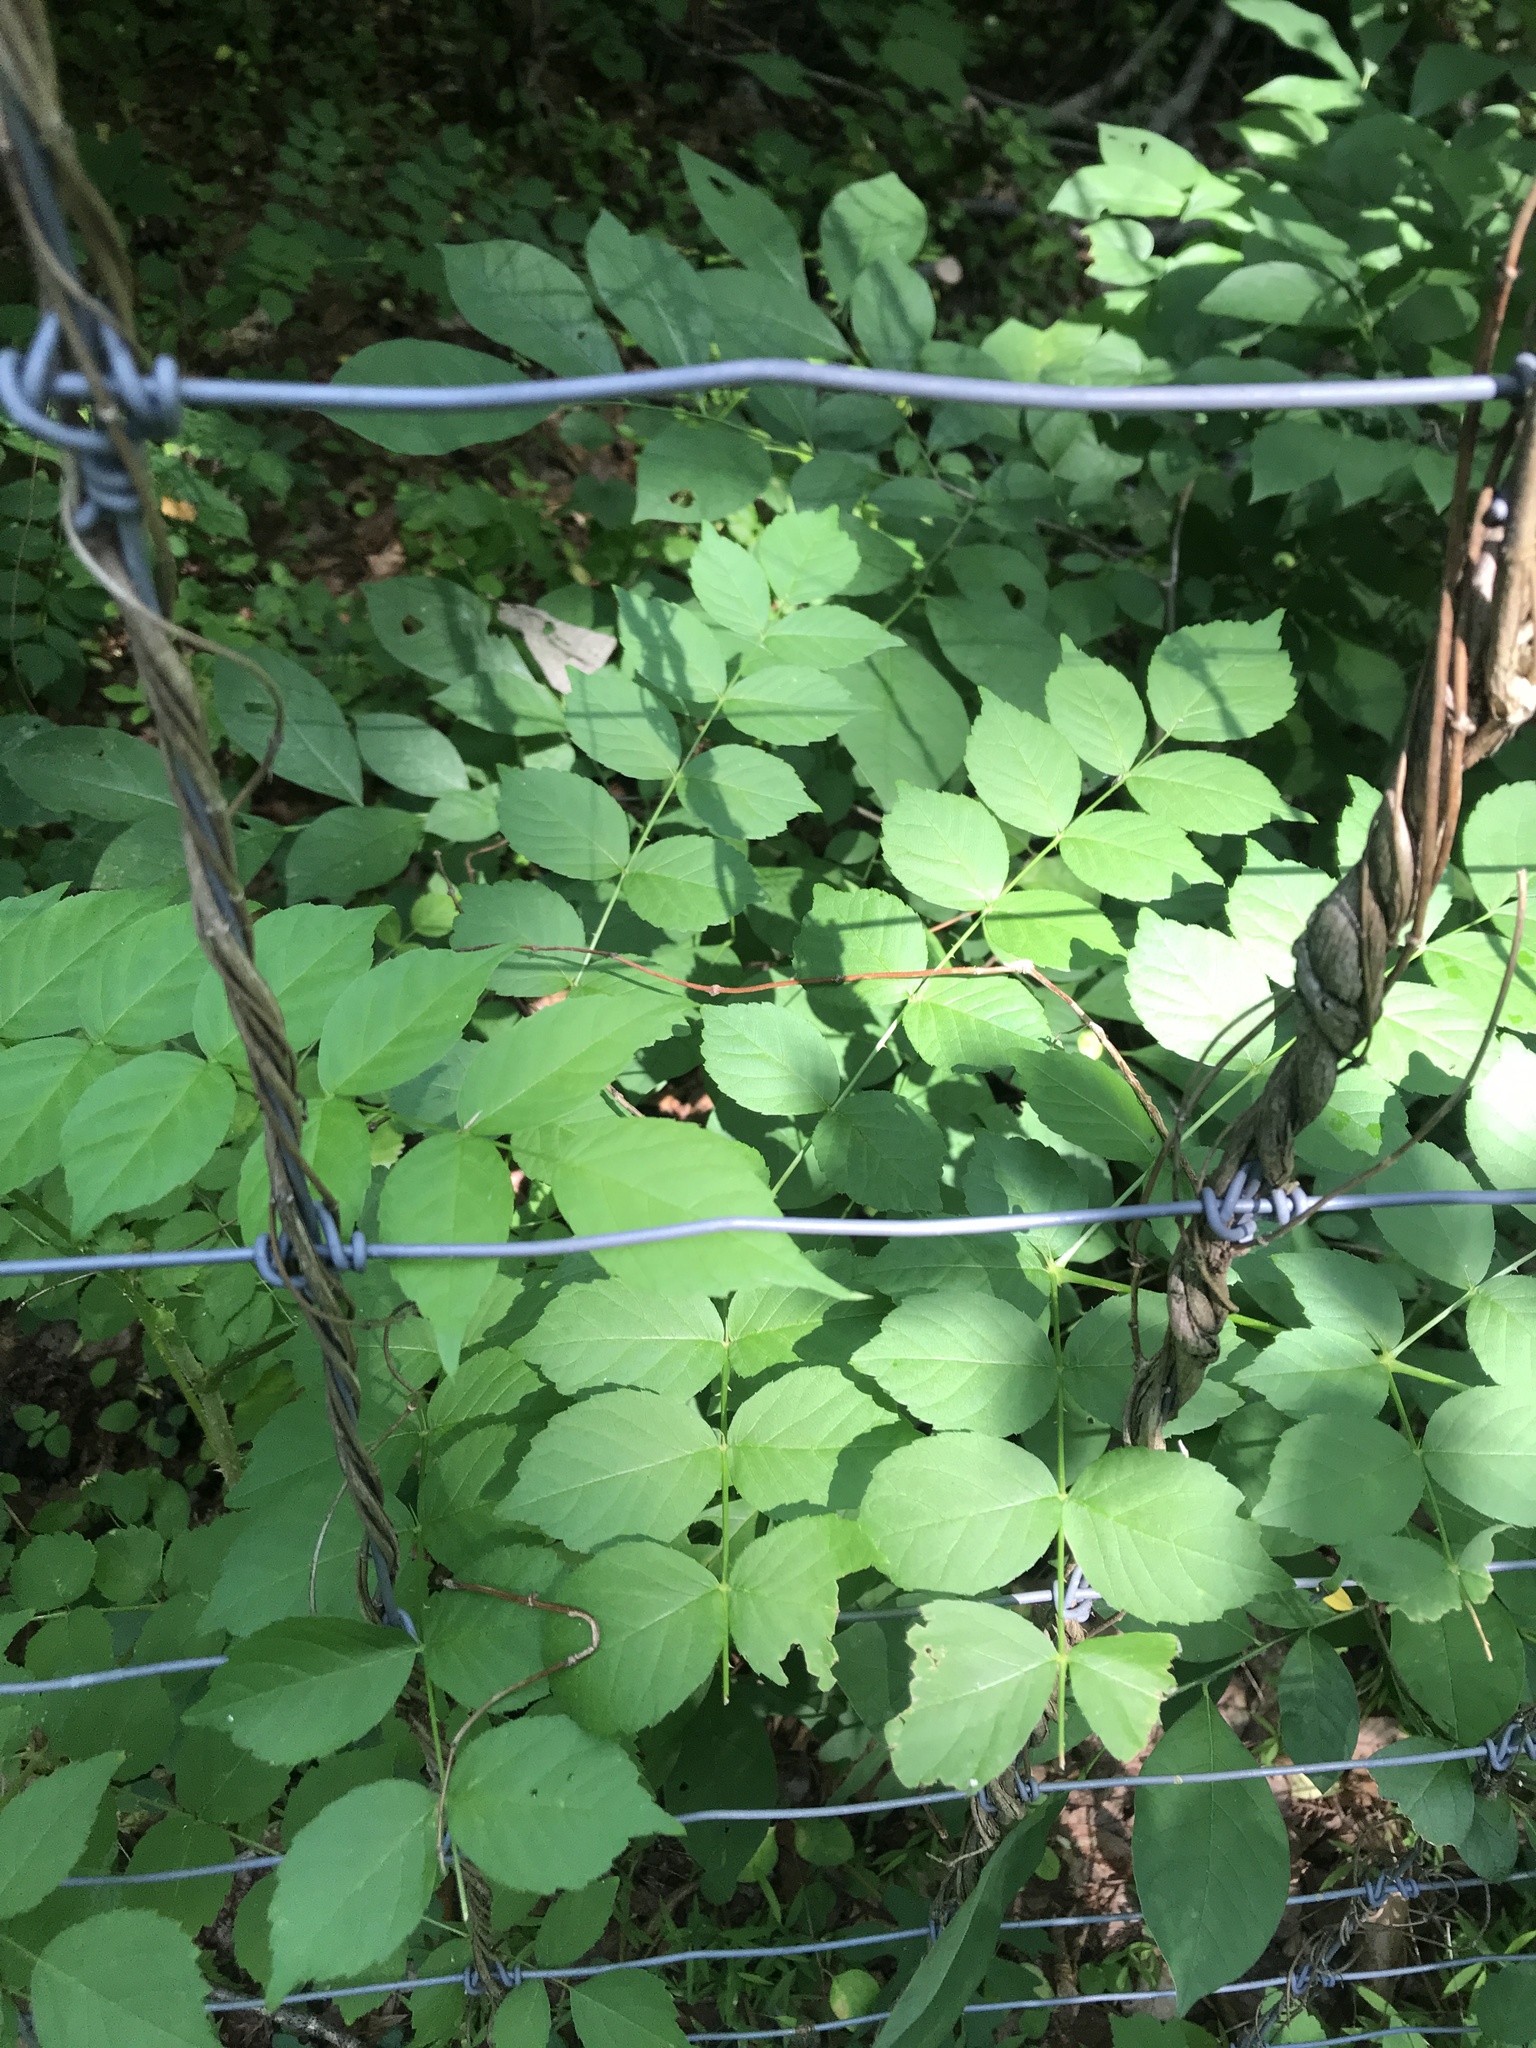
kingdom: Plantae
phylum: Tracheophyta
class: Magnoliopsida
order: Apiales
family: Araliaceae
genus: Aralia
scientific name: Aralia elata
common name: Japanese angelica-tree
